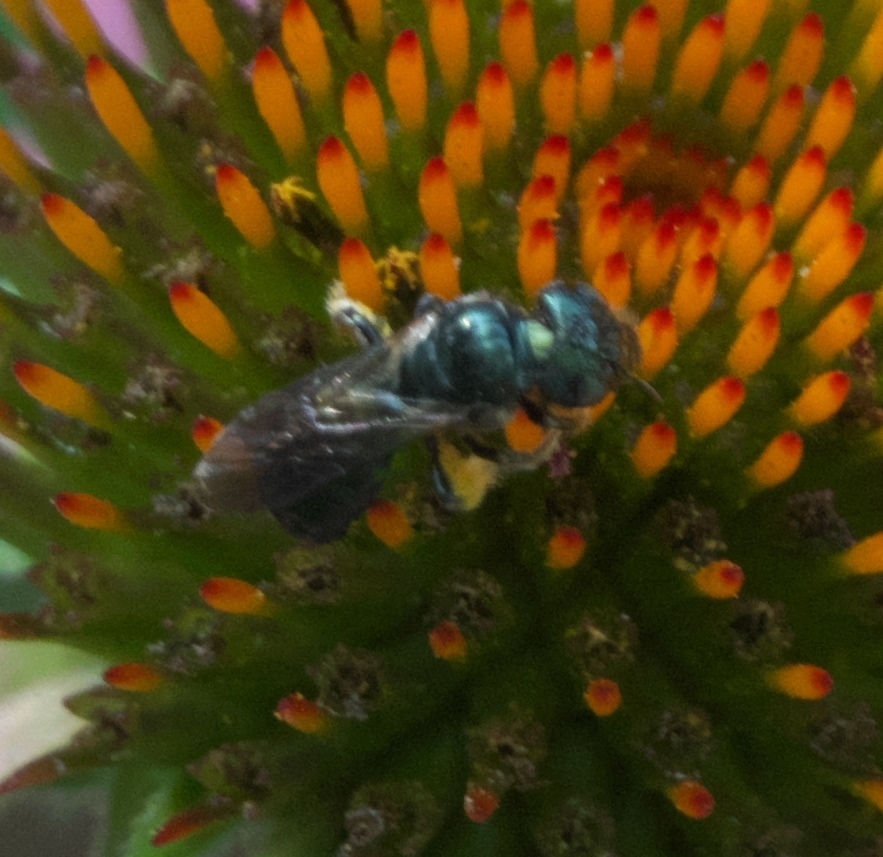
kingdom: Animalia
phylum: Arthropoda
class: Insecta
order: Hymenoptera
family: Apidae
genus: Zadontomerus
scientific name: Zadontomerus
